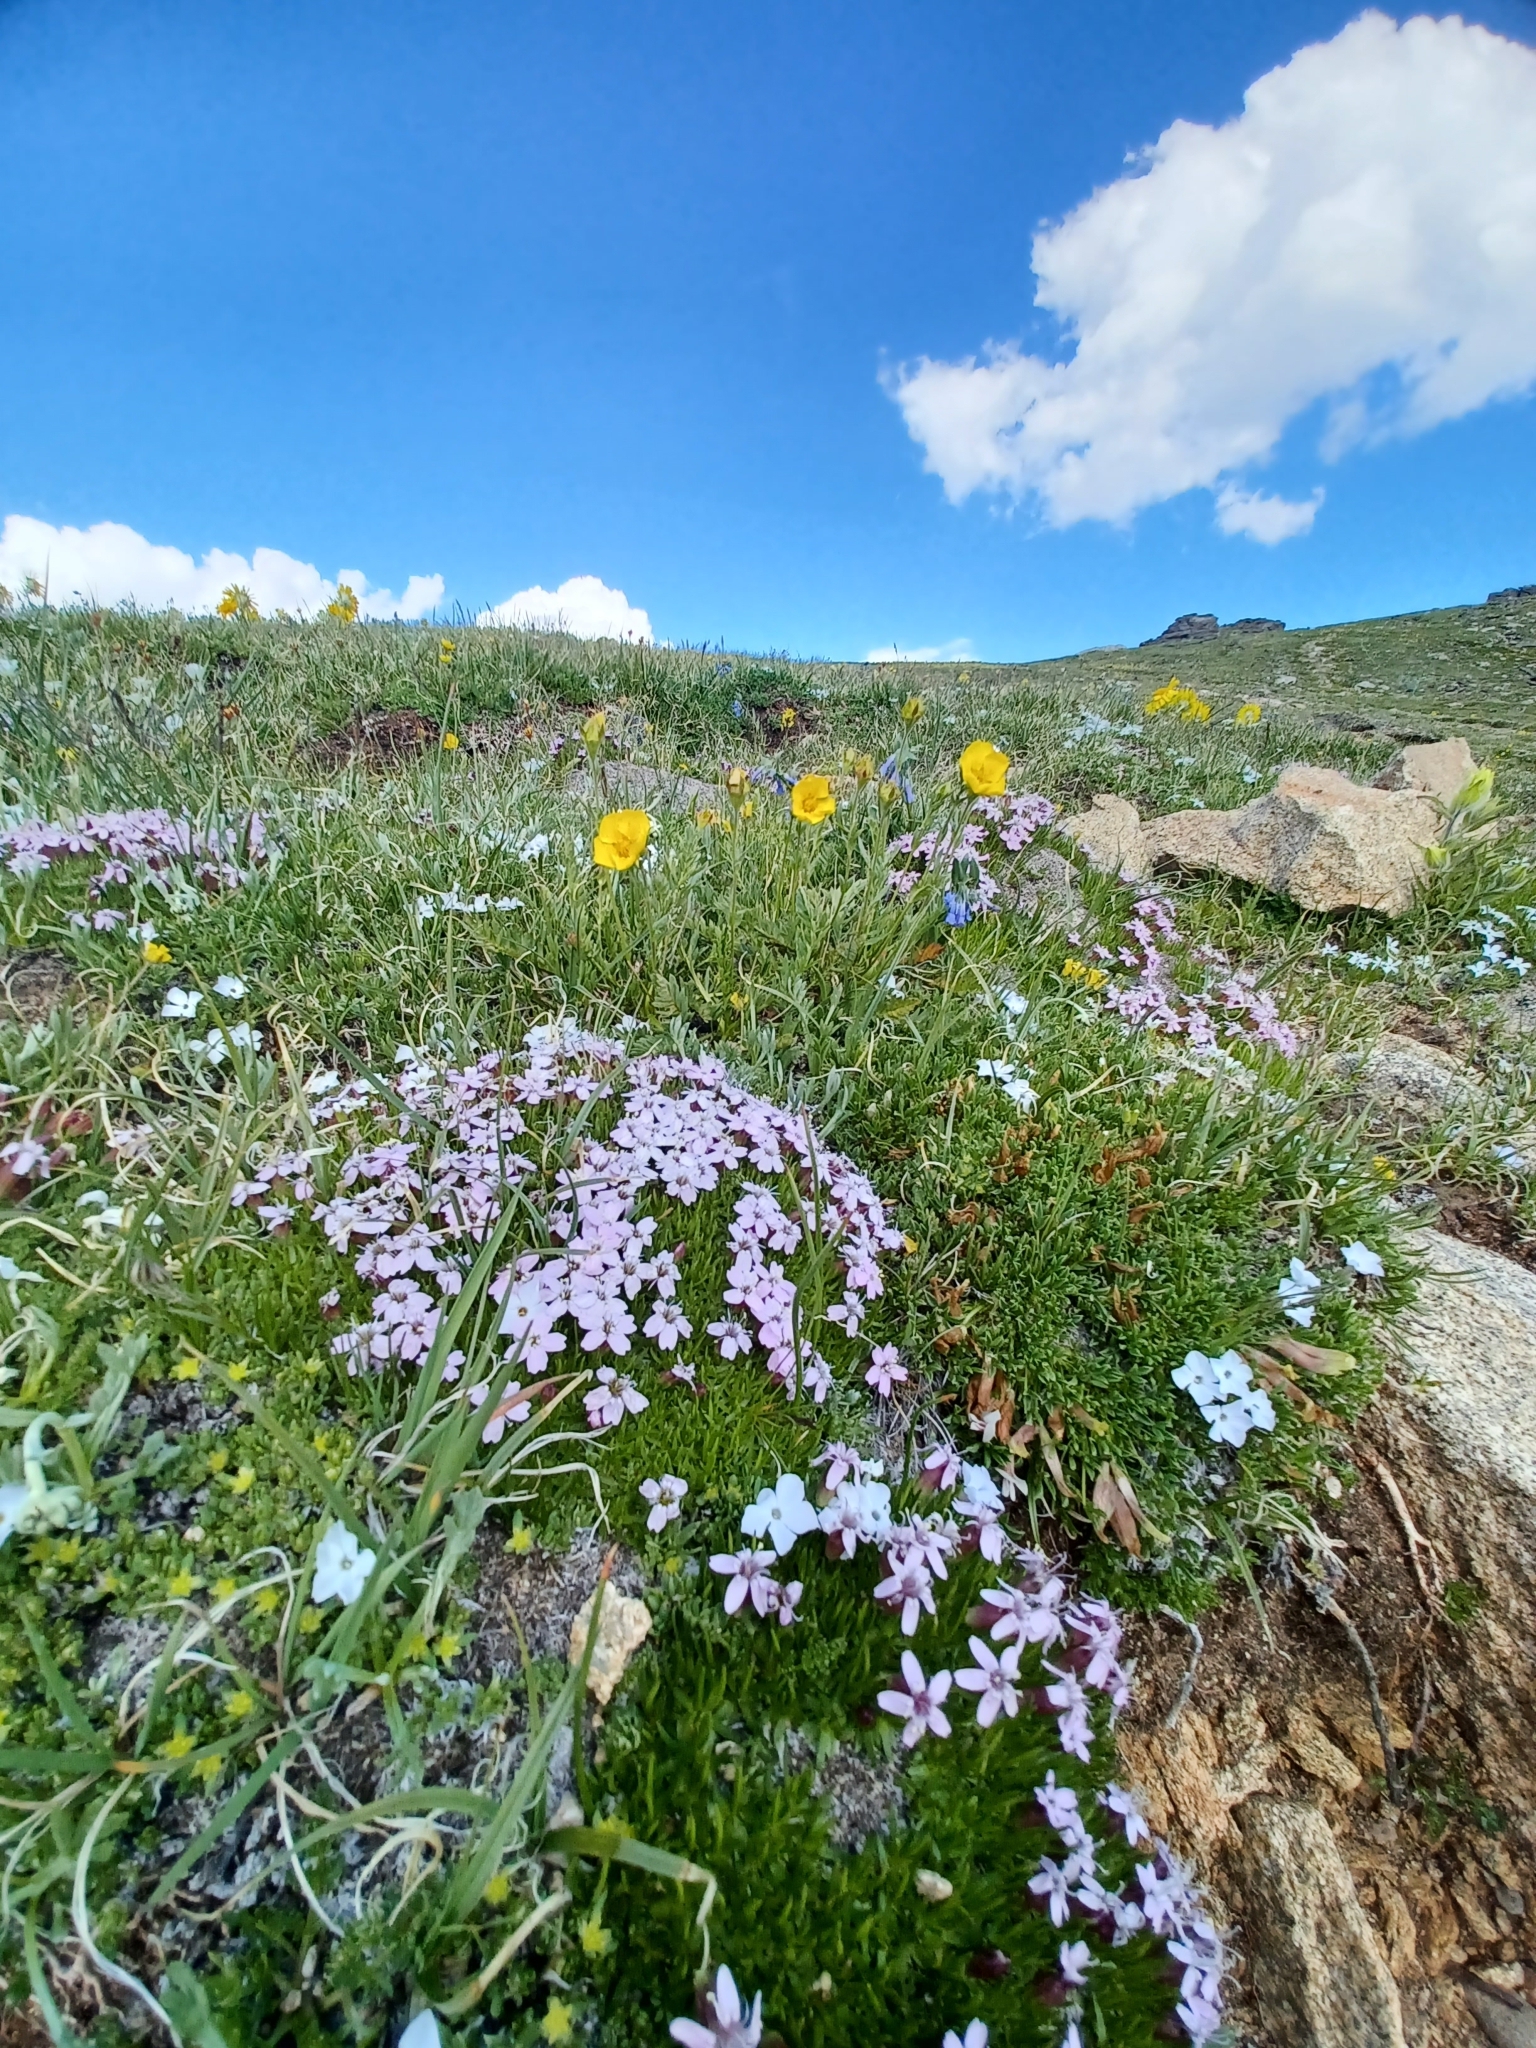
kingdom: Plantae
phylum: Tracheophyta
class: Magnoliopsida
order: Ericales
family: Polemoniaceae
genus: Phlox
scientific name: Phlox condensata
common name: Compact phlox
